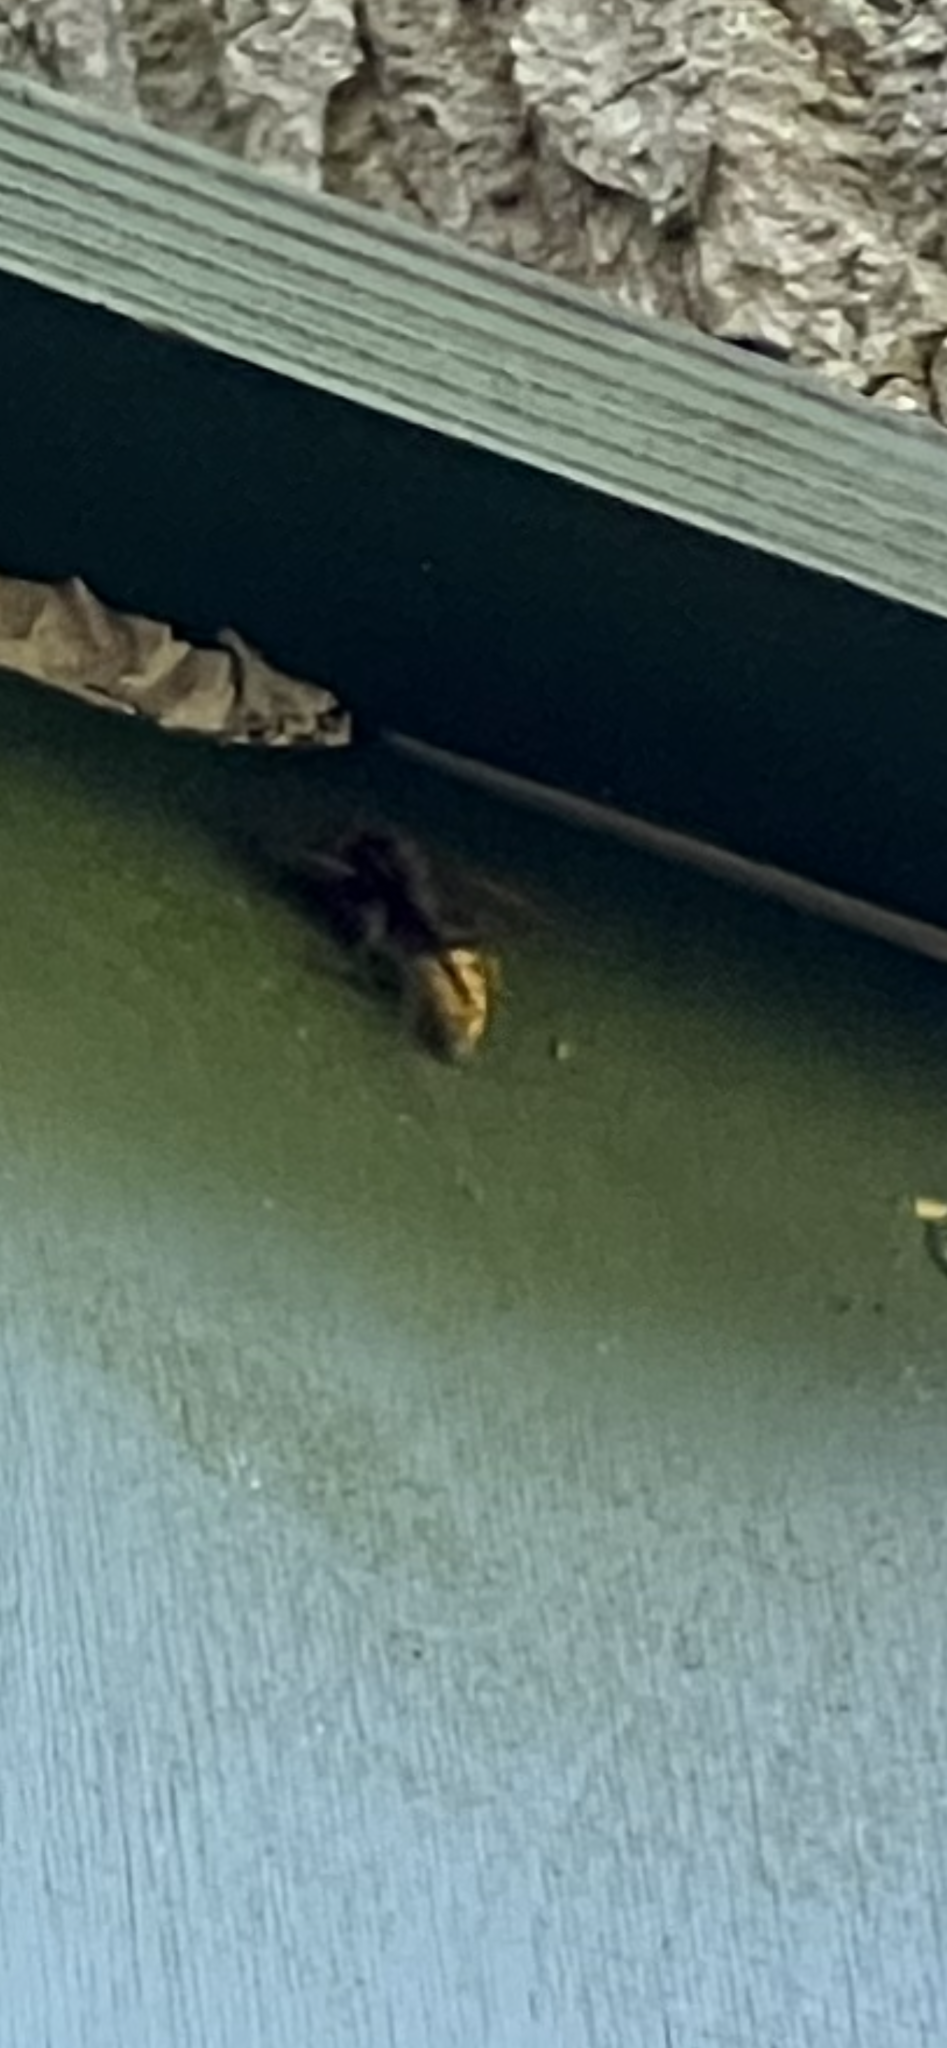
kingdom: Animalia
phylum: Arthropoda
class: Insecta
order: Hymenoptera
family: Vespidae
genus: Vespa
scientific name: Vespa crabro
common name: Hornet
